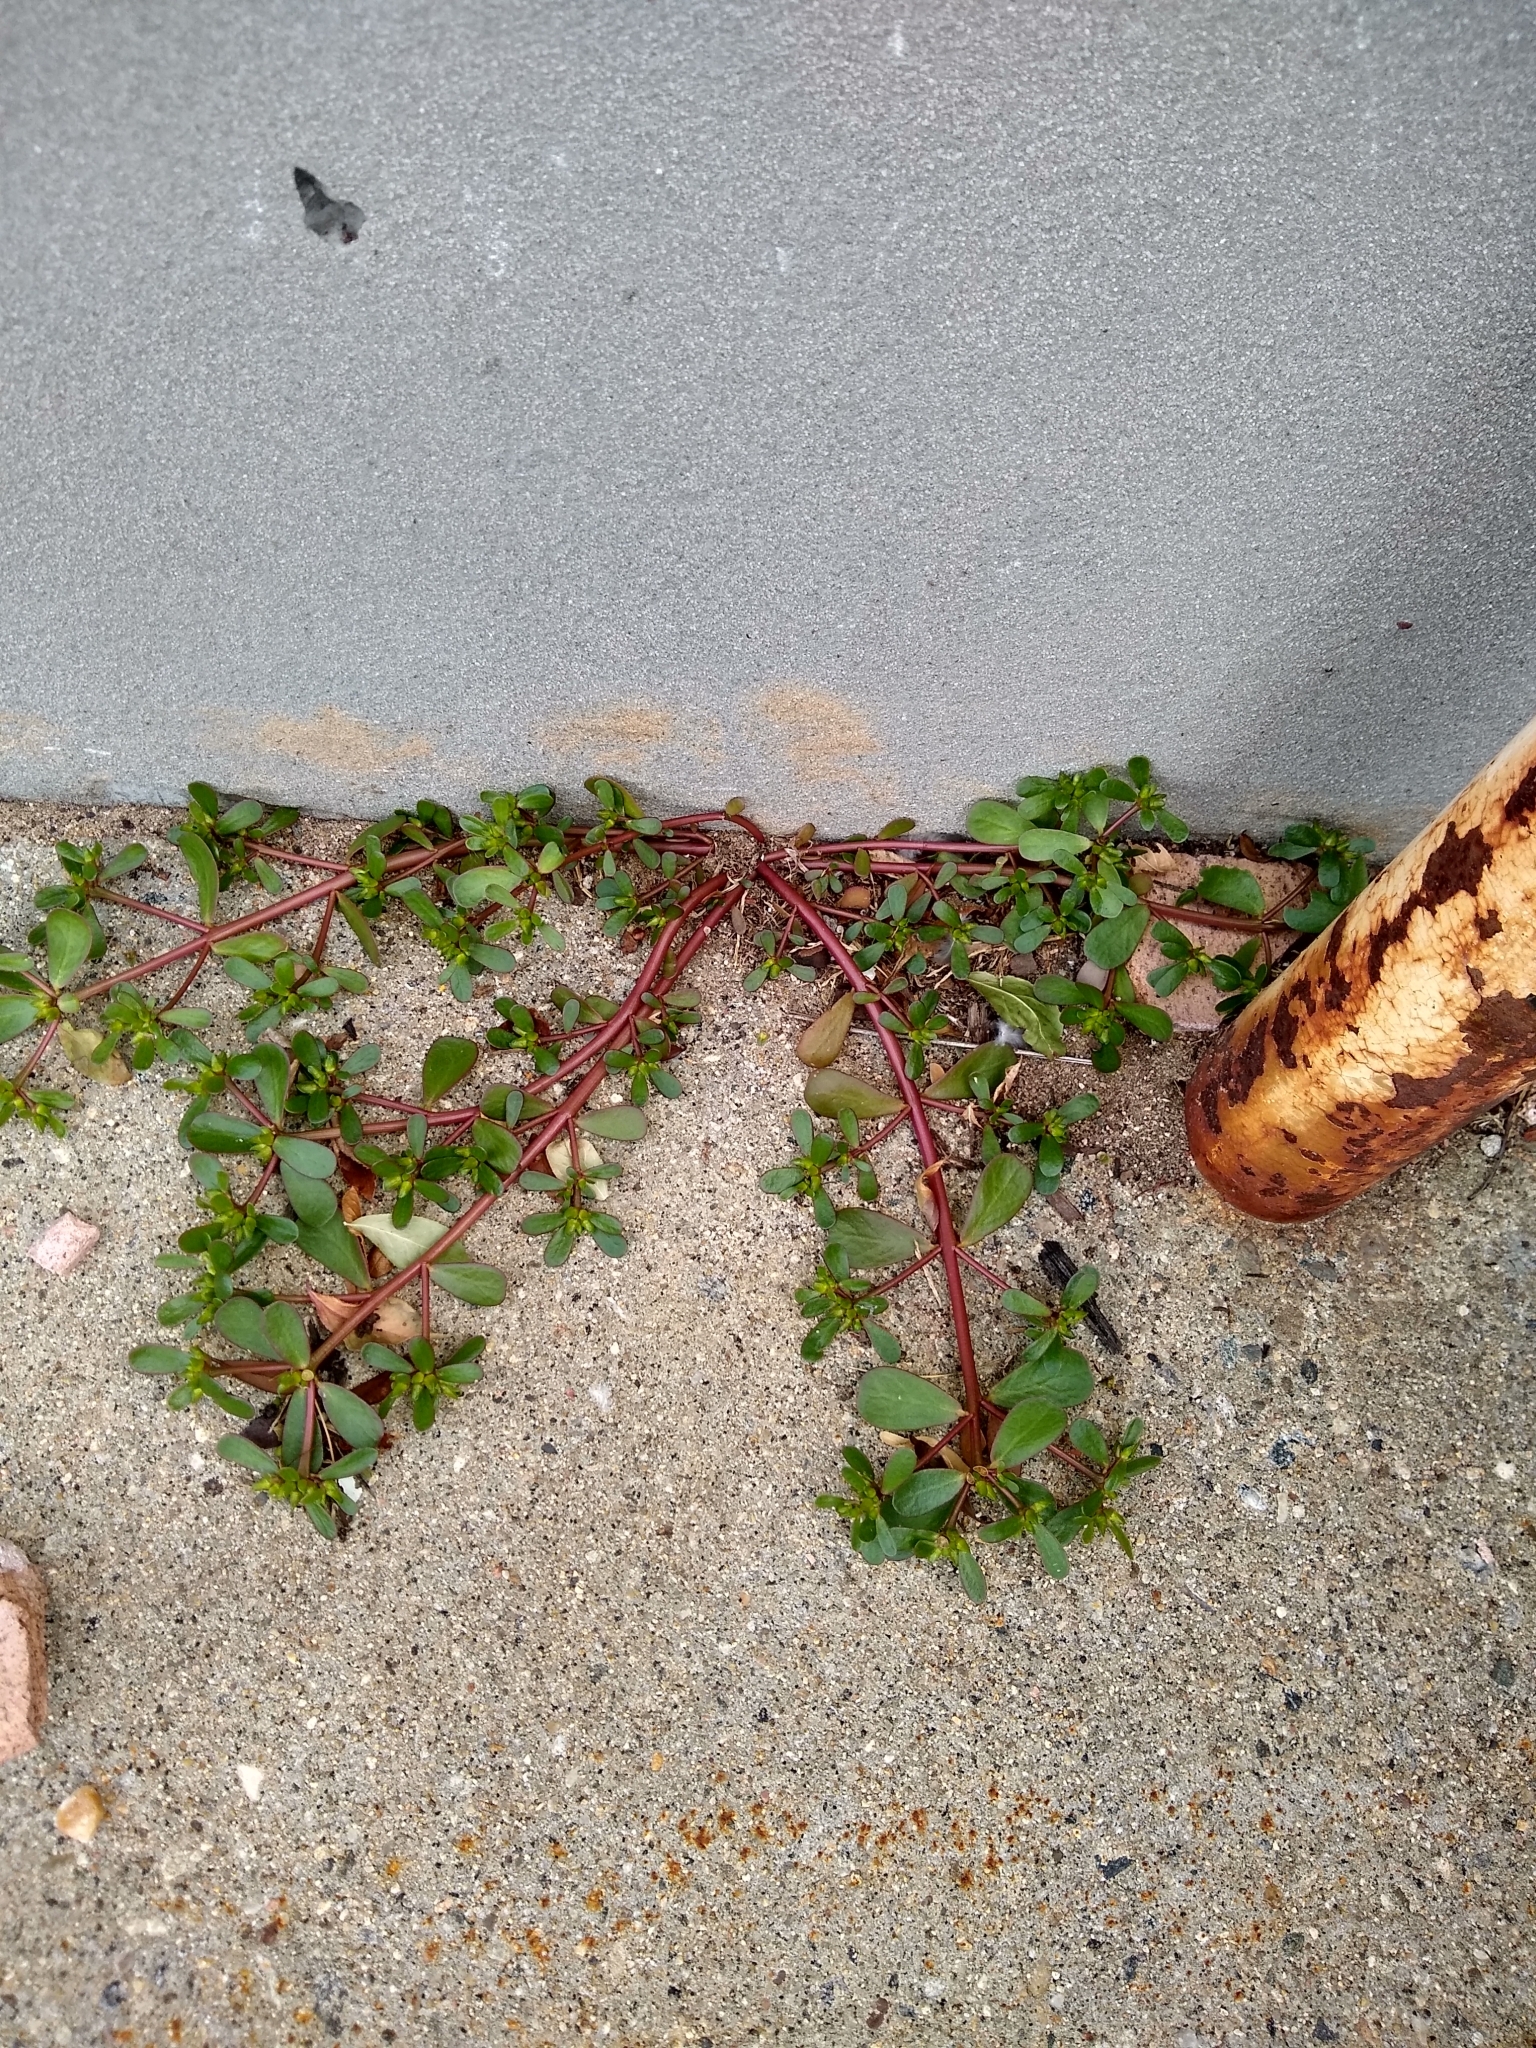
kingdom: Plantae
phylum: Tracheophyta
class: Magnoliopsida
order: Caryophyllales
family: Portulacaceae
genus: Portulaca
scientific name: Portulaca oleracea
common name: Common purslane
